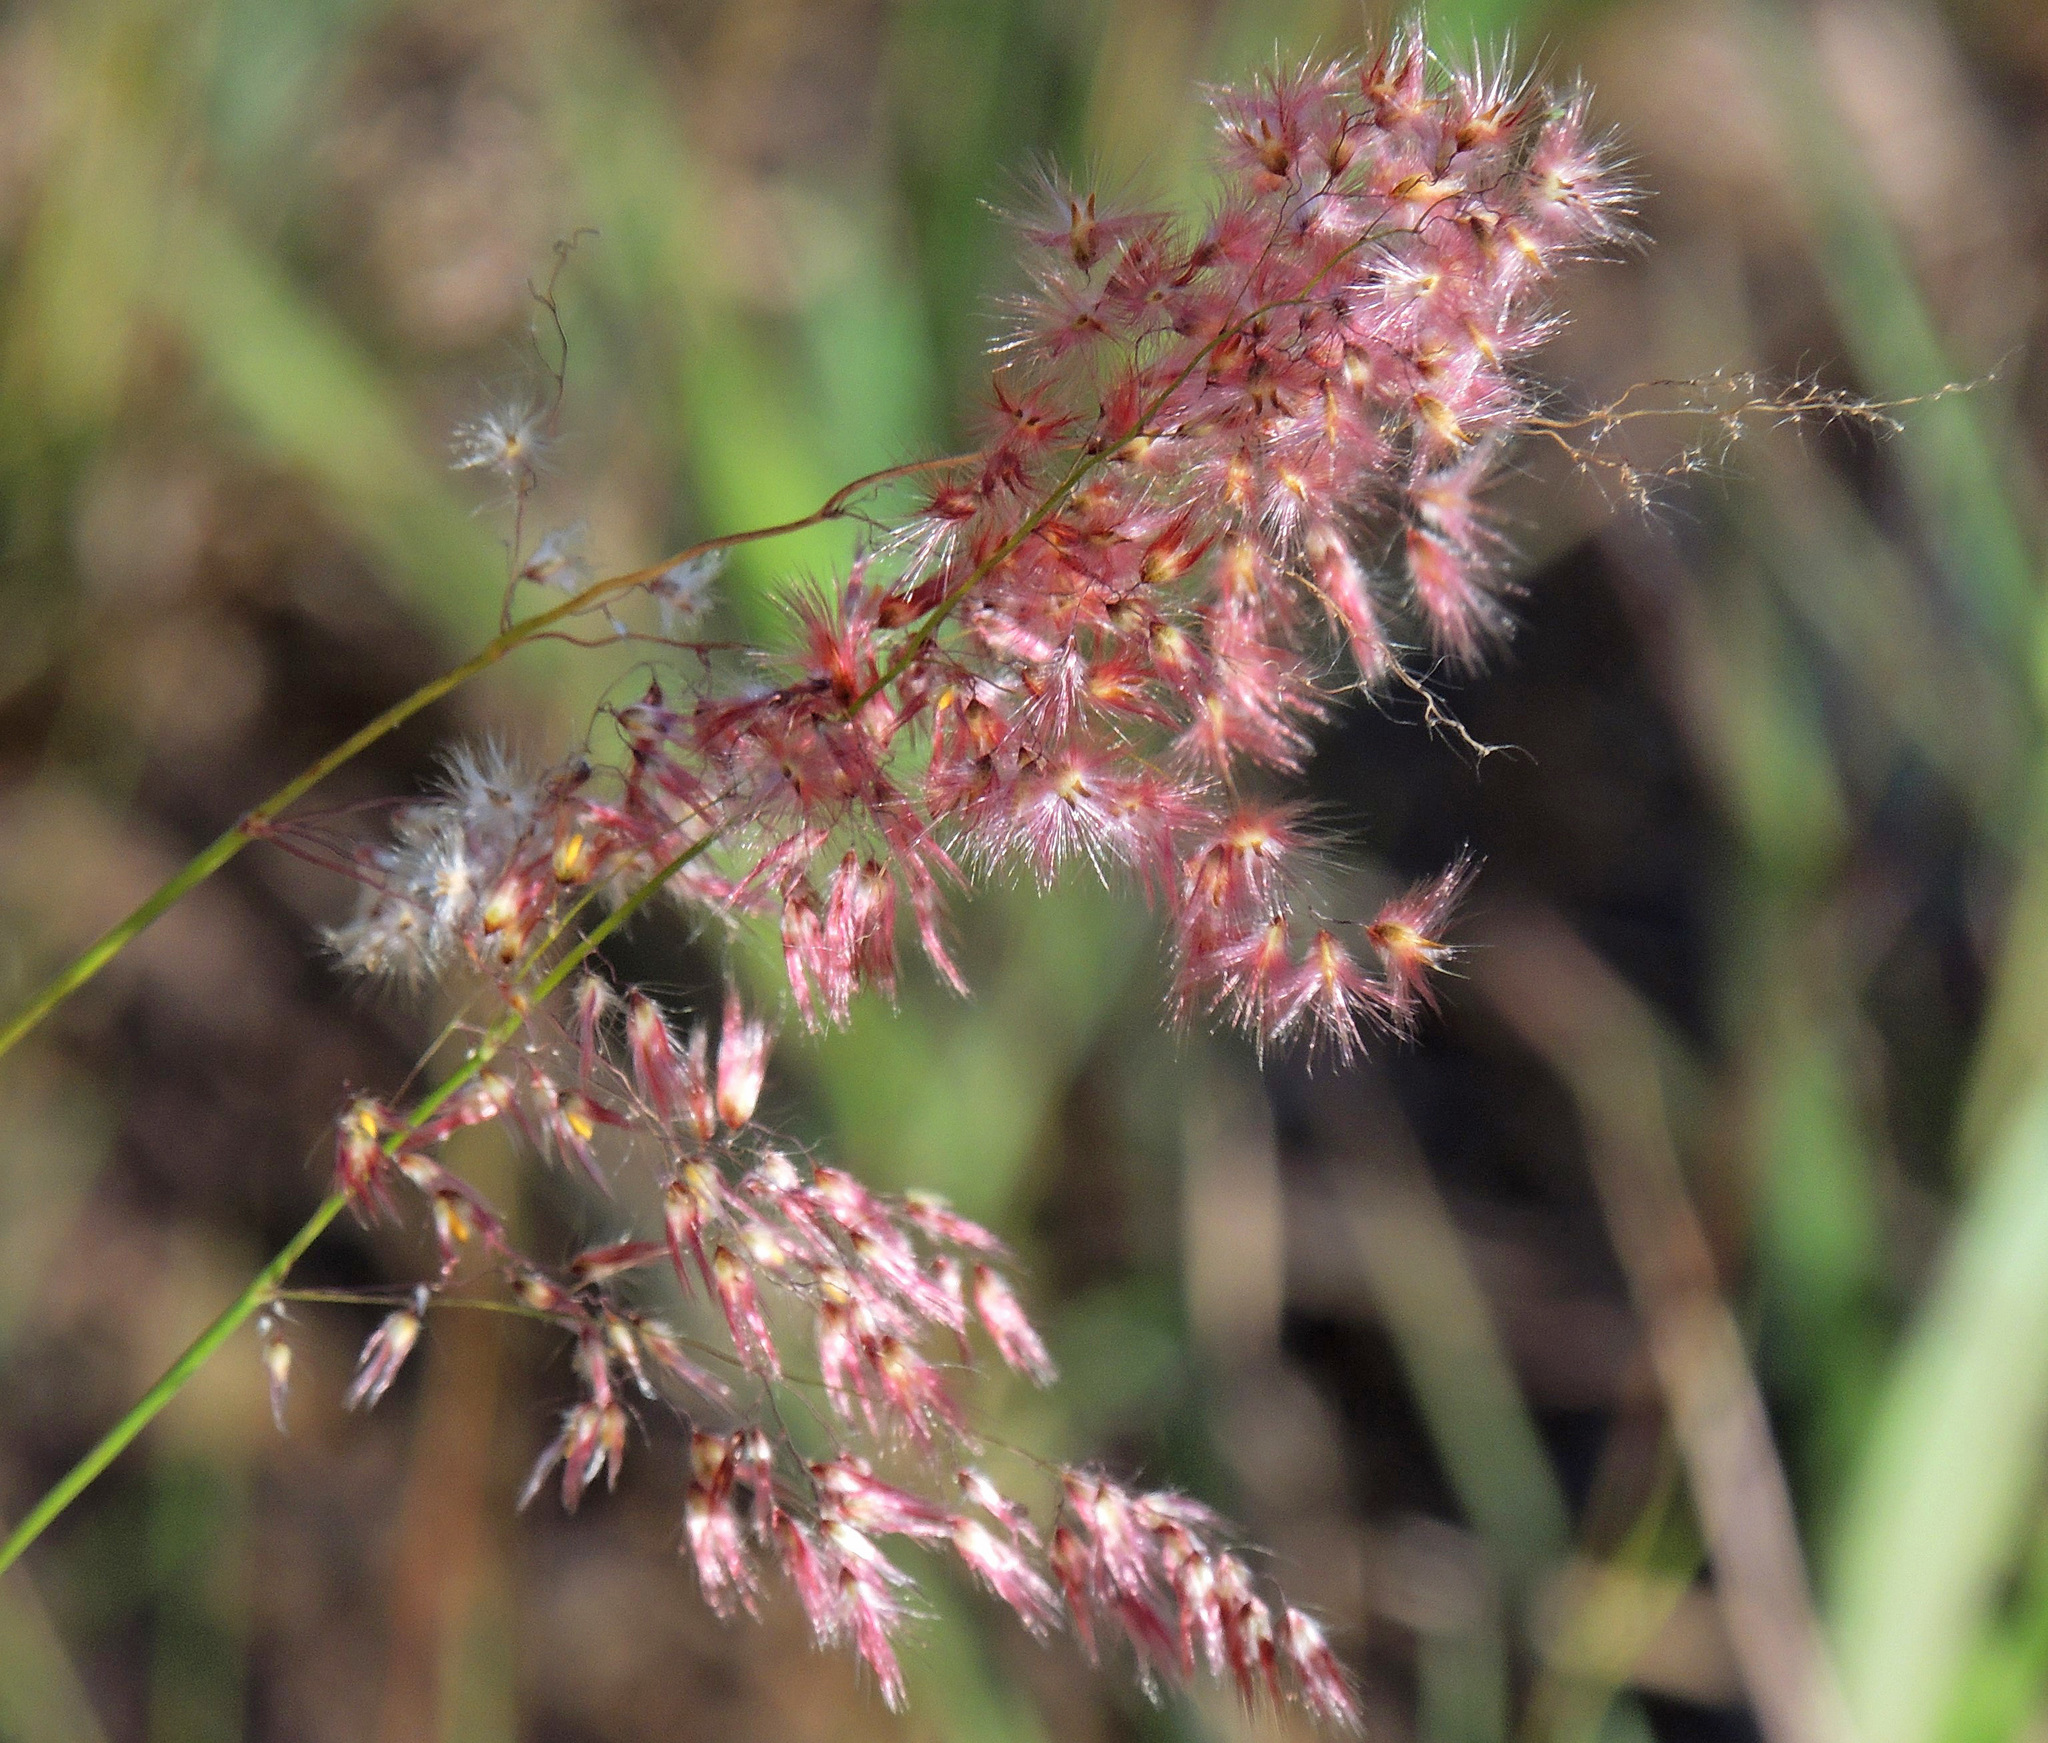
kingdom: Plantae
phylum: Tracheophyta
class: Liliopsida
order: Poales
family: Poaceae
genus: Melinis
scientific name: Melinis repens
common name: Rose natal grass
